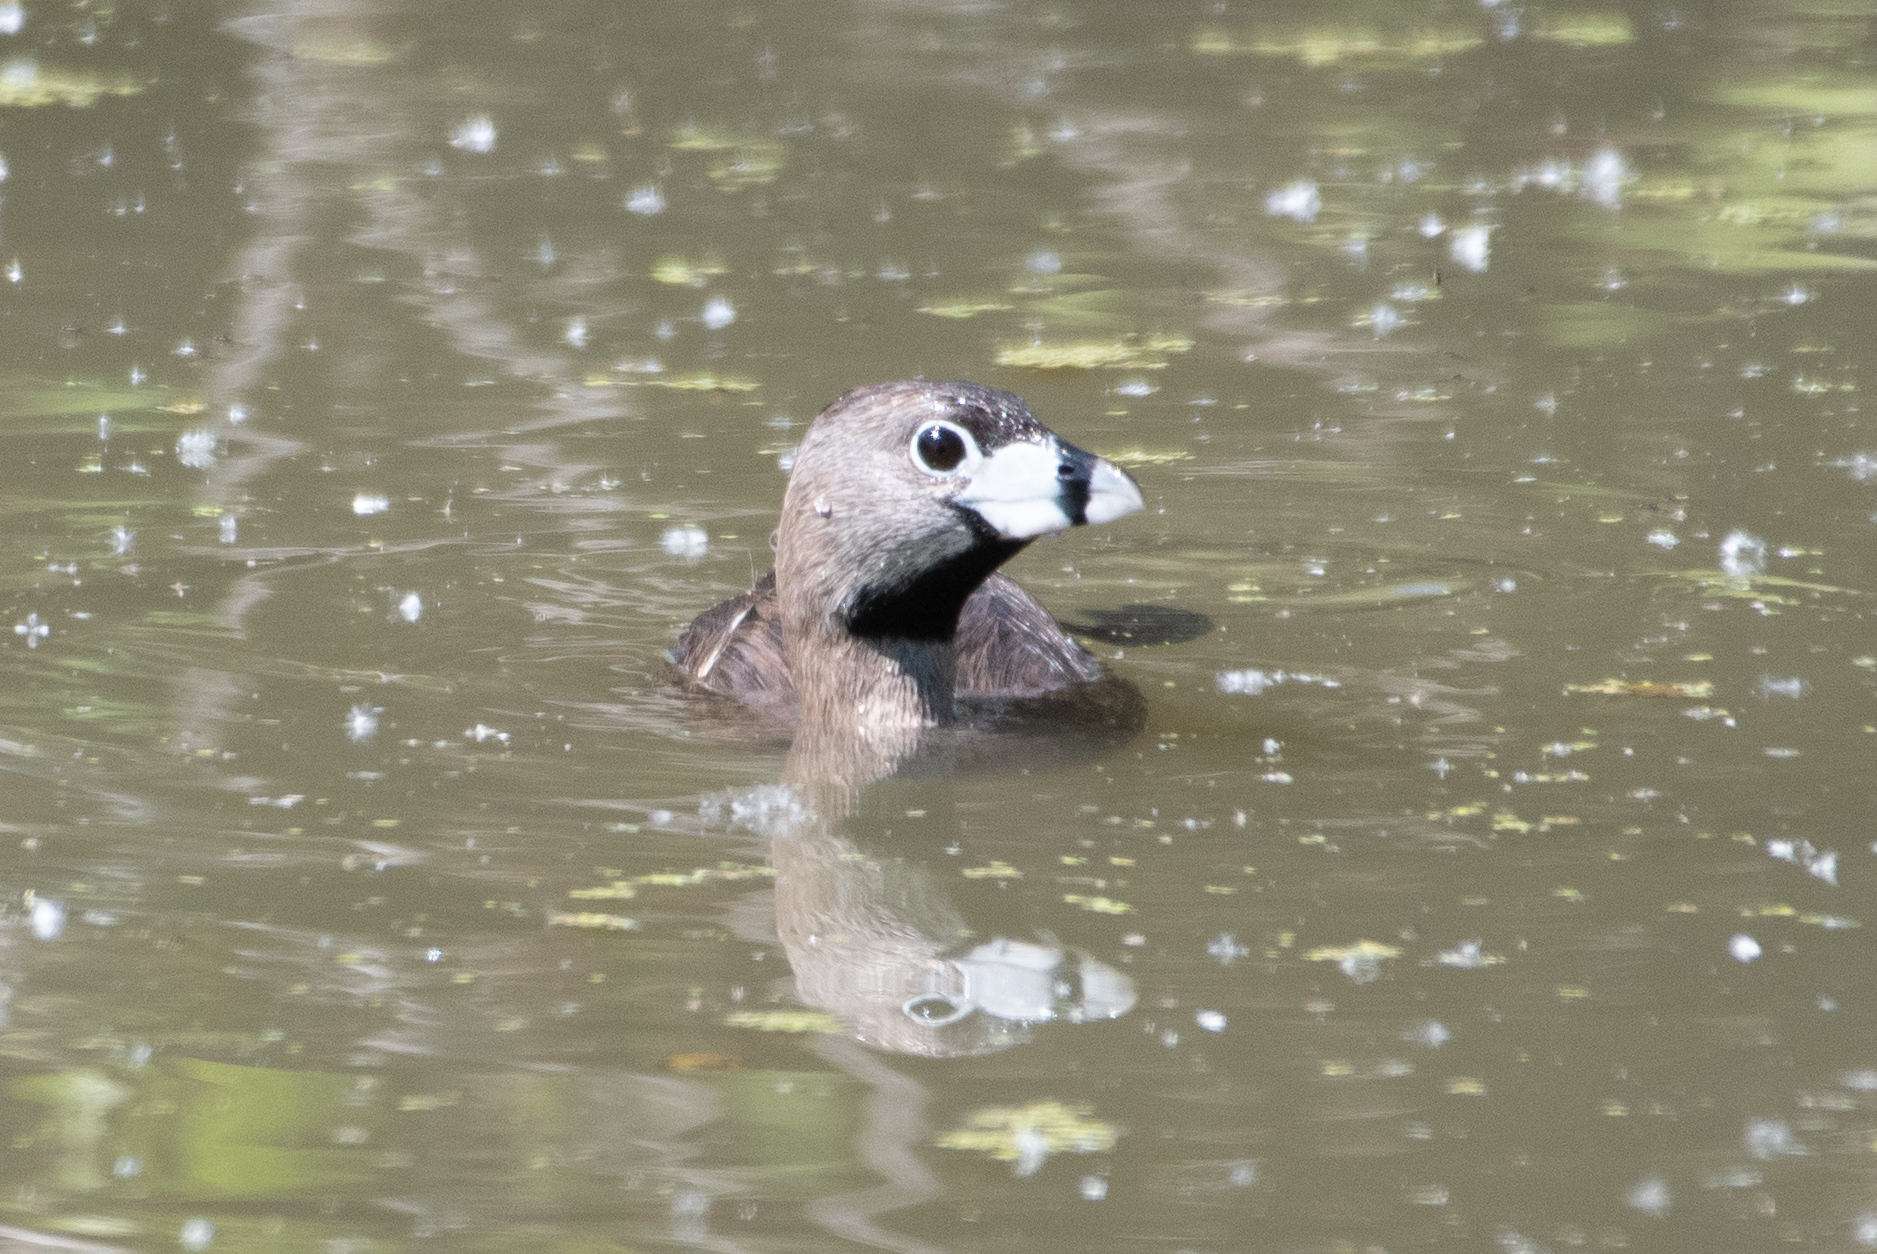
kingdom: Animalia
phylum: Chordata
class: Aves
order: Podicipediformes
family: Podicipedidae
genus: Podilymbus
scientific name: Podilymbus podiceps
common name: Pied-billed grebe
